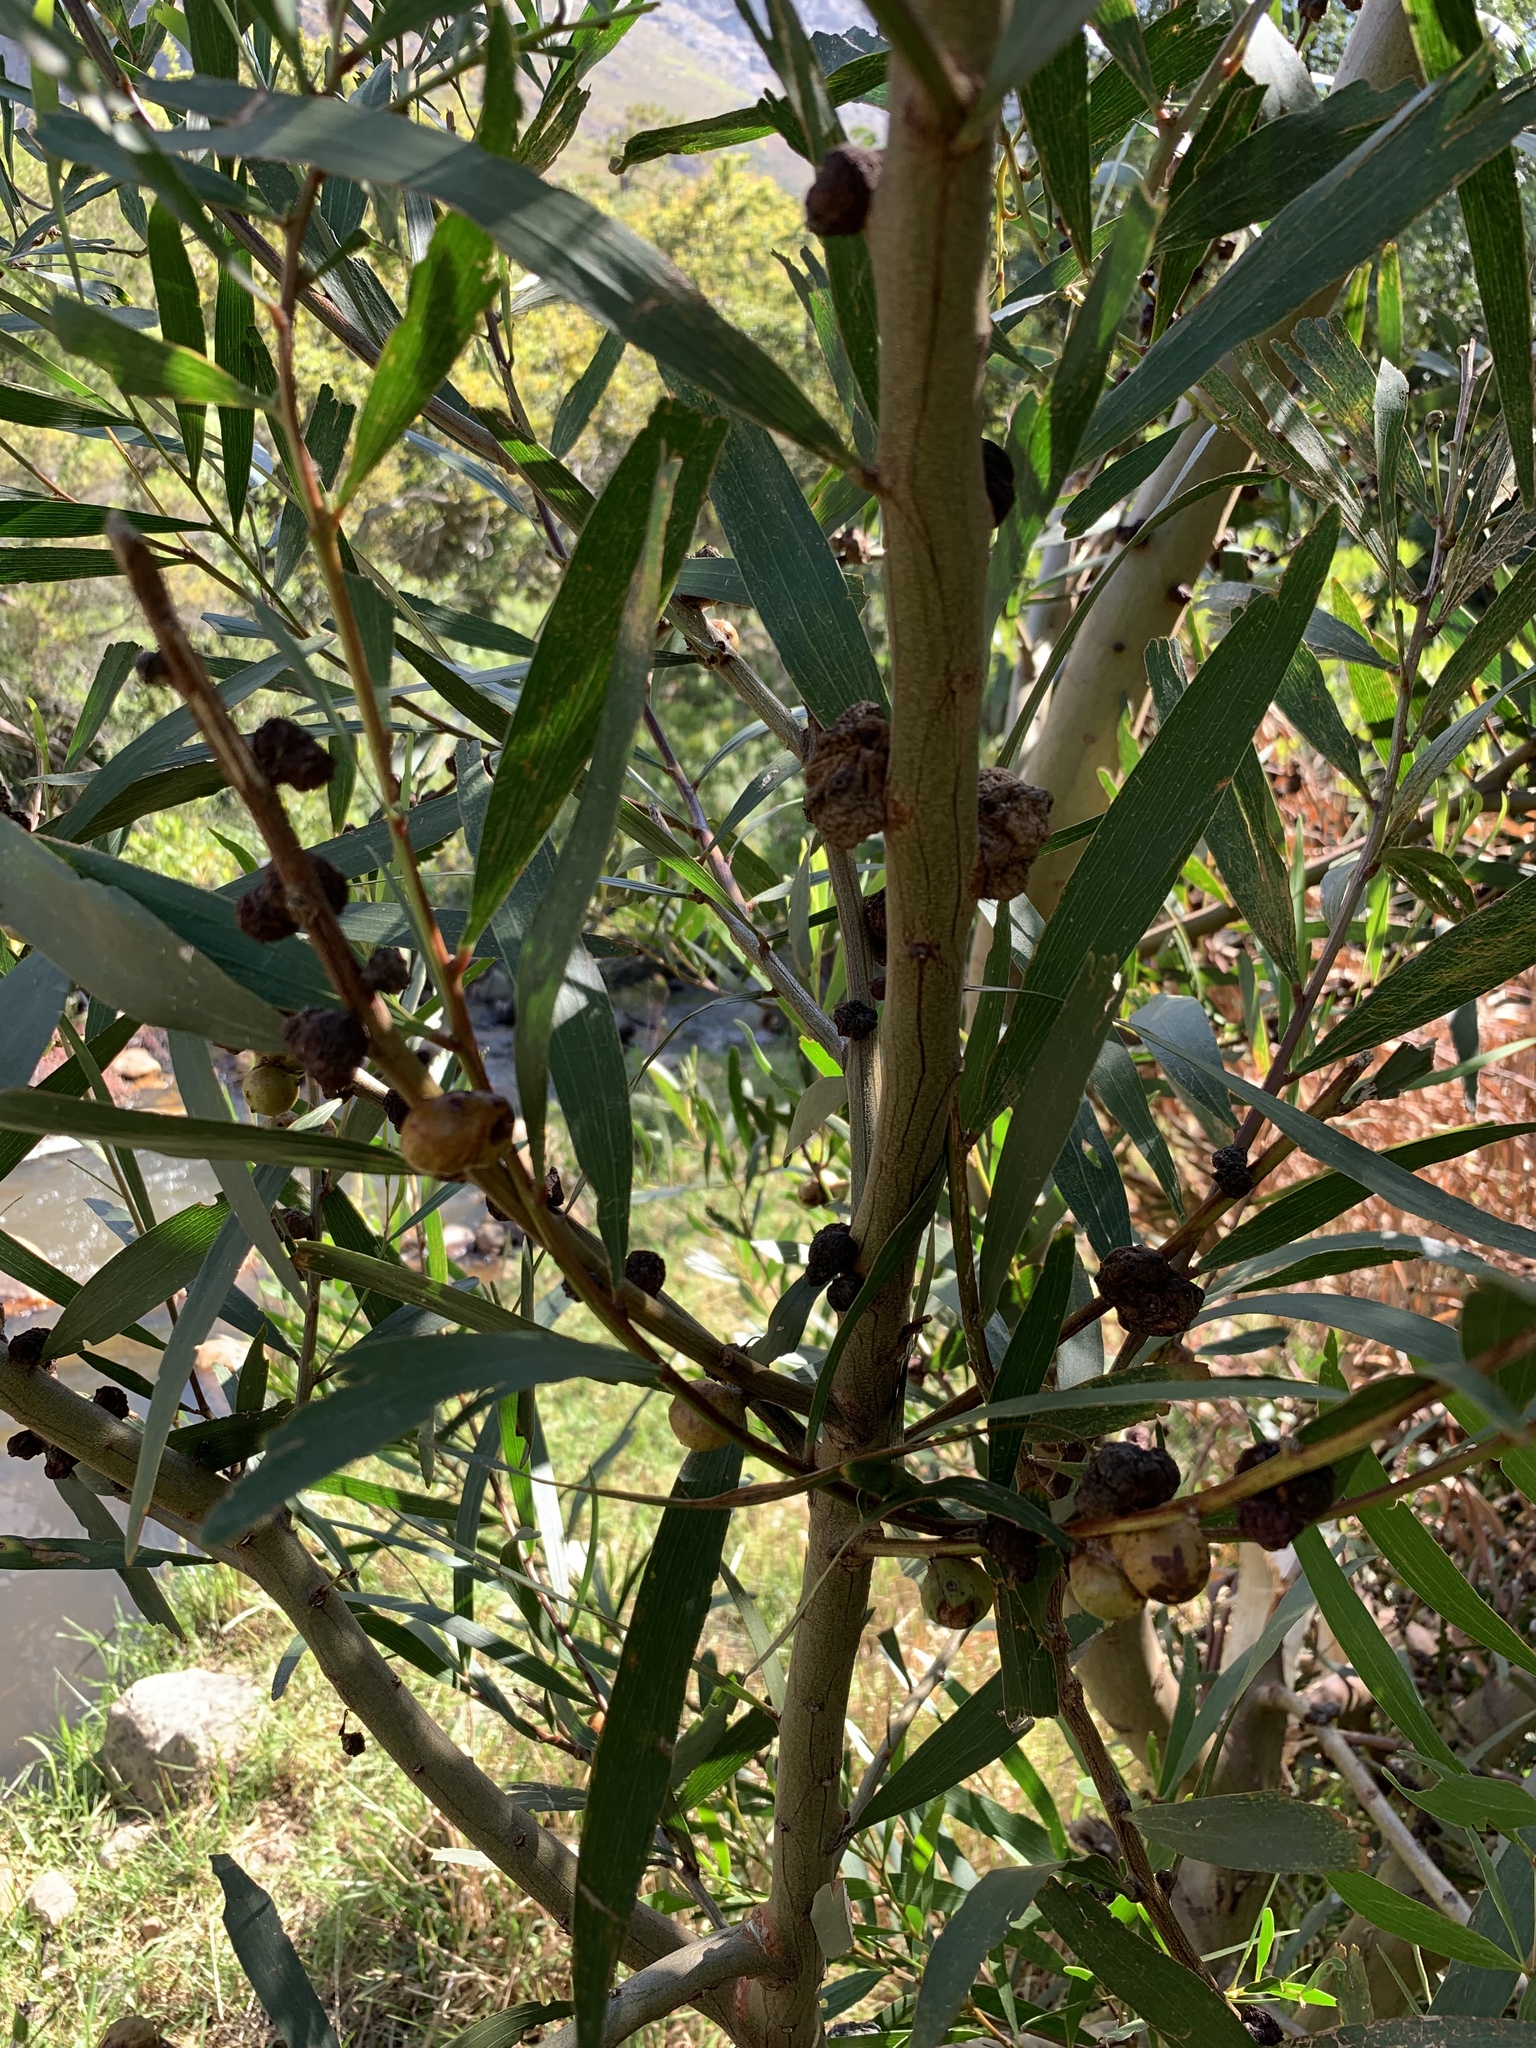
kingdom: Animalia
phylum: Arthropoda
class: Insecta
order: Hymenoptera
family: Pteromalidae
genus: Trichilogaster
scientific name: Trichilogaster acaciaelongifoliae
